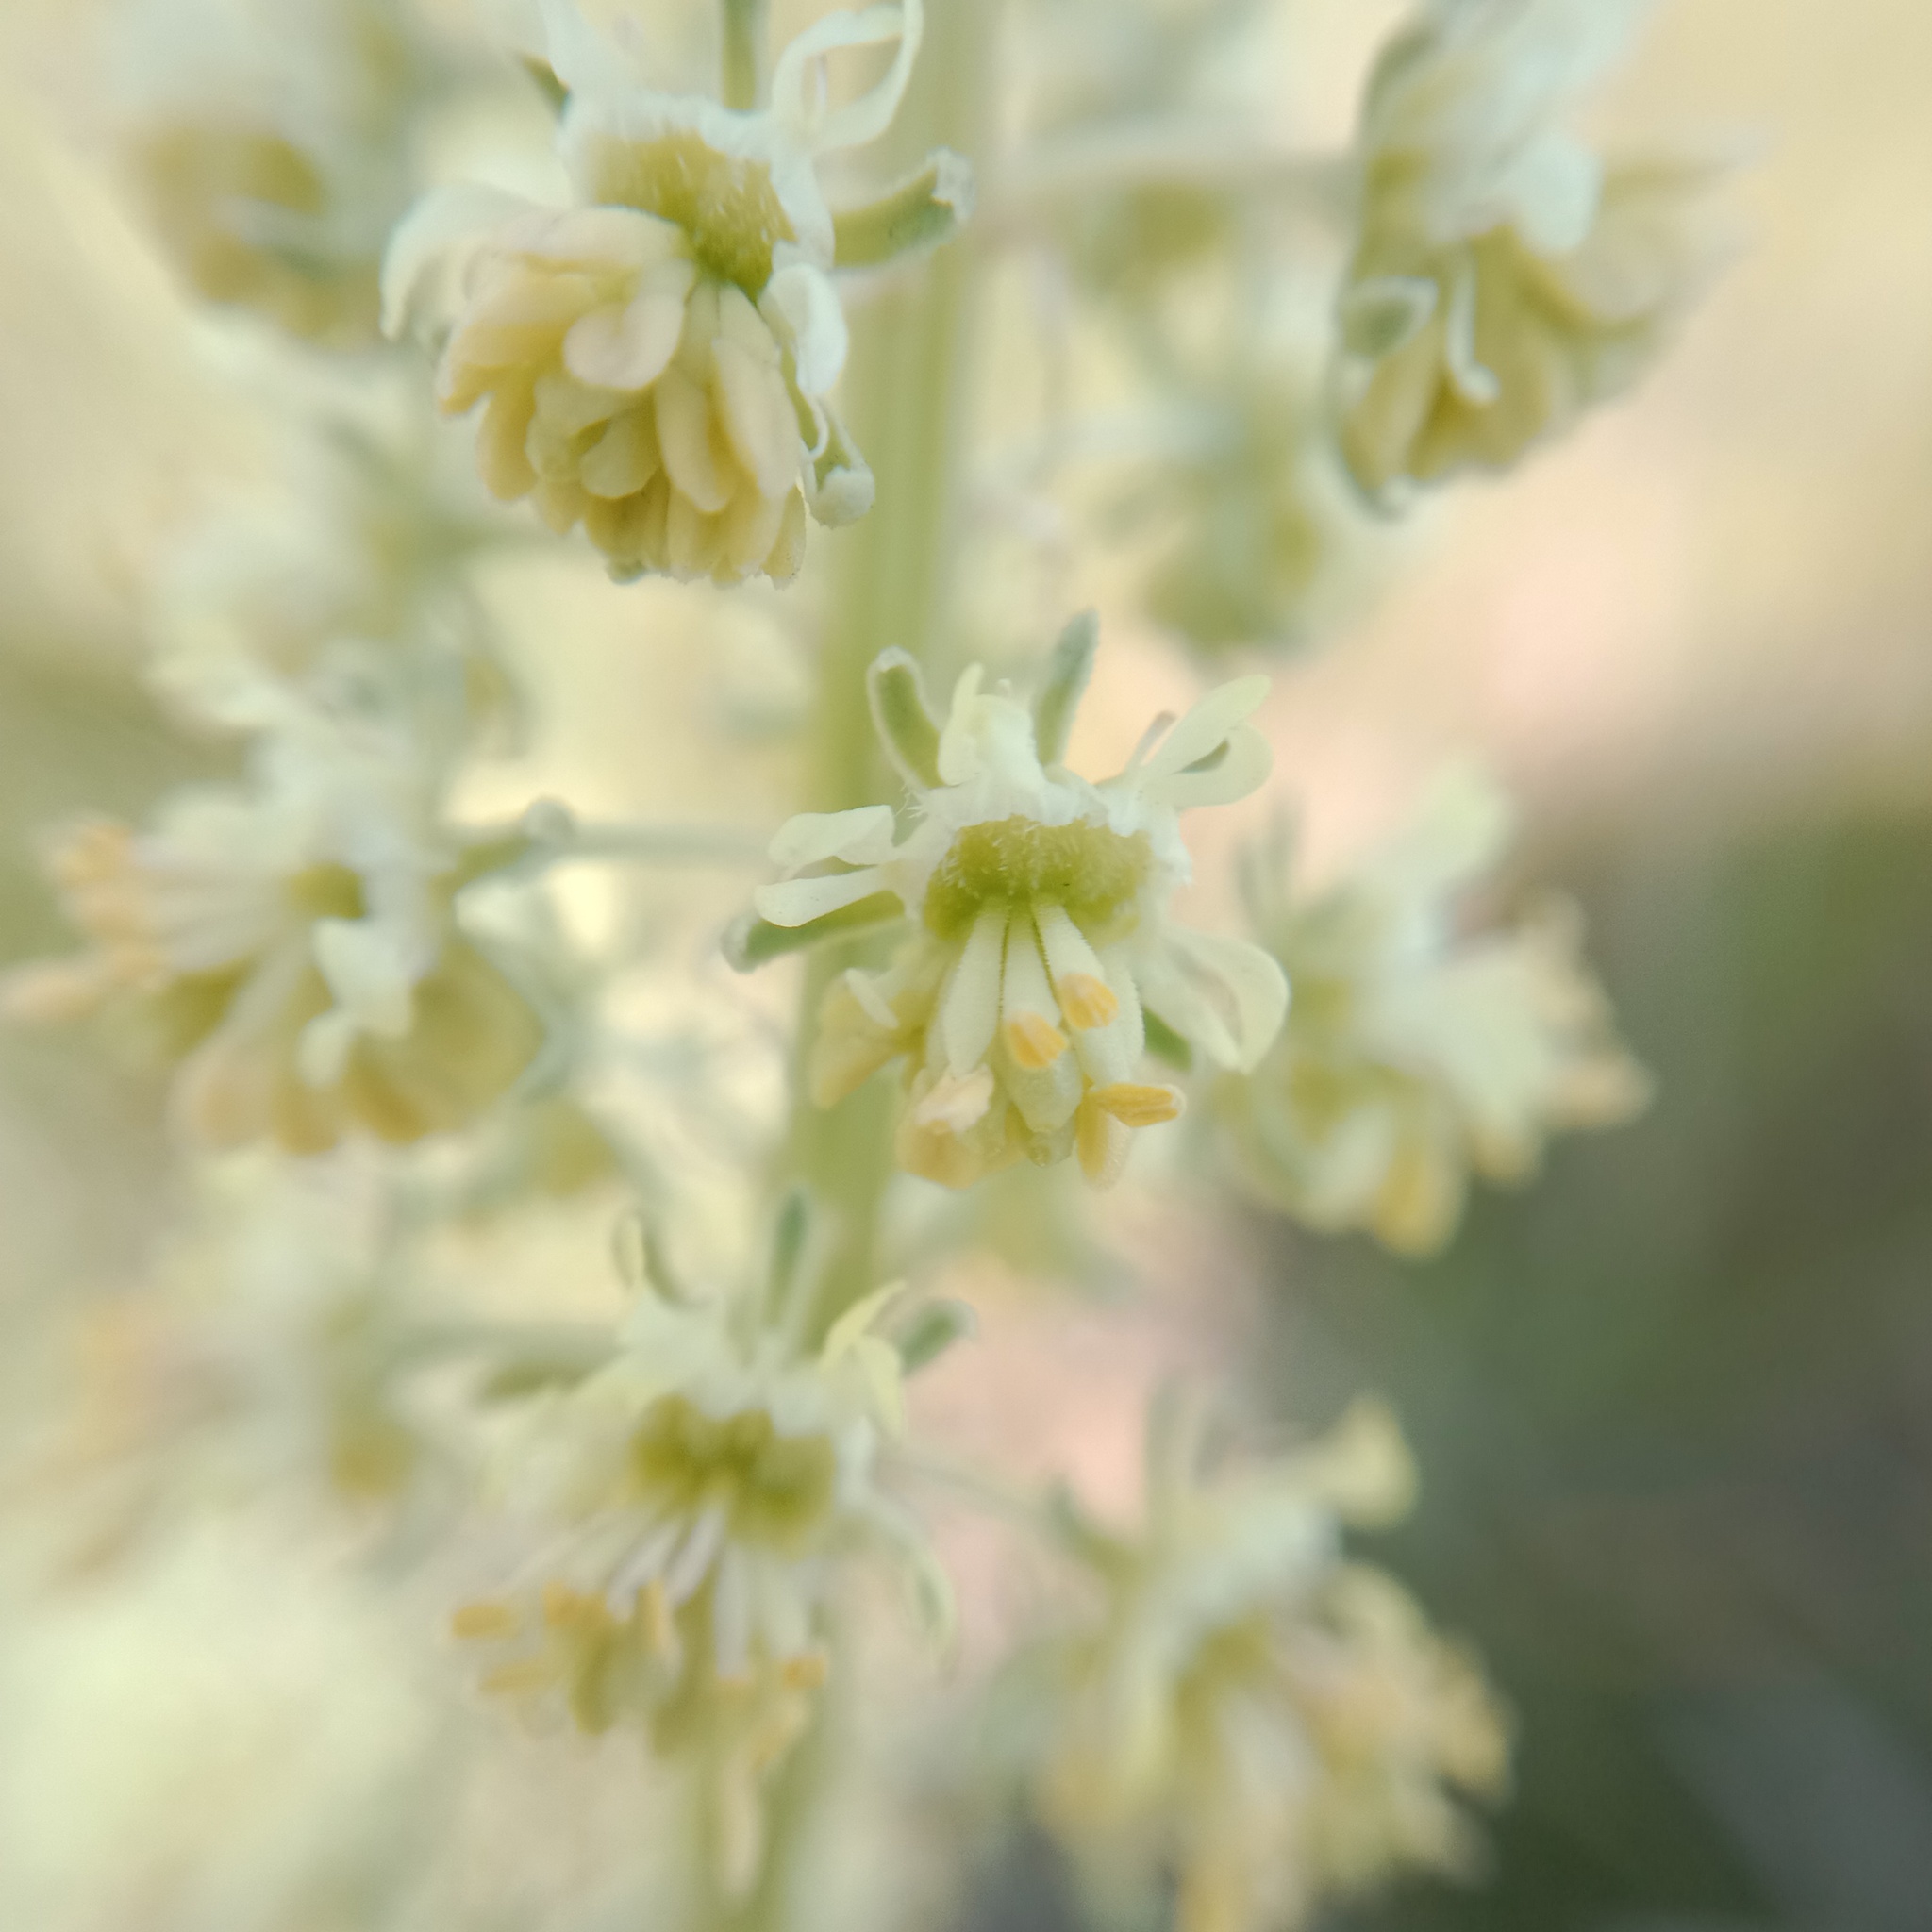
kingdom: Plantae
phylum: Tracheophyta
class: Magnoliopsida
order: Brassicales
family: Resedaceae
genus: Reseda
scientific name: Reseda lutea
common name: Wild mignonette
